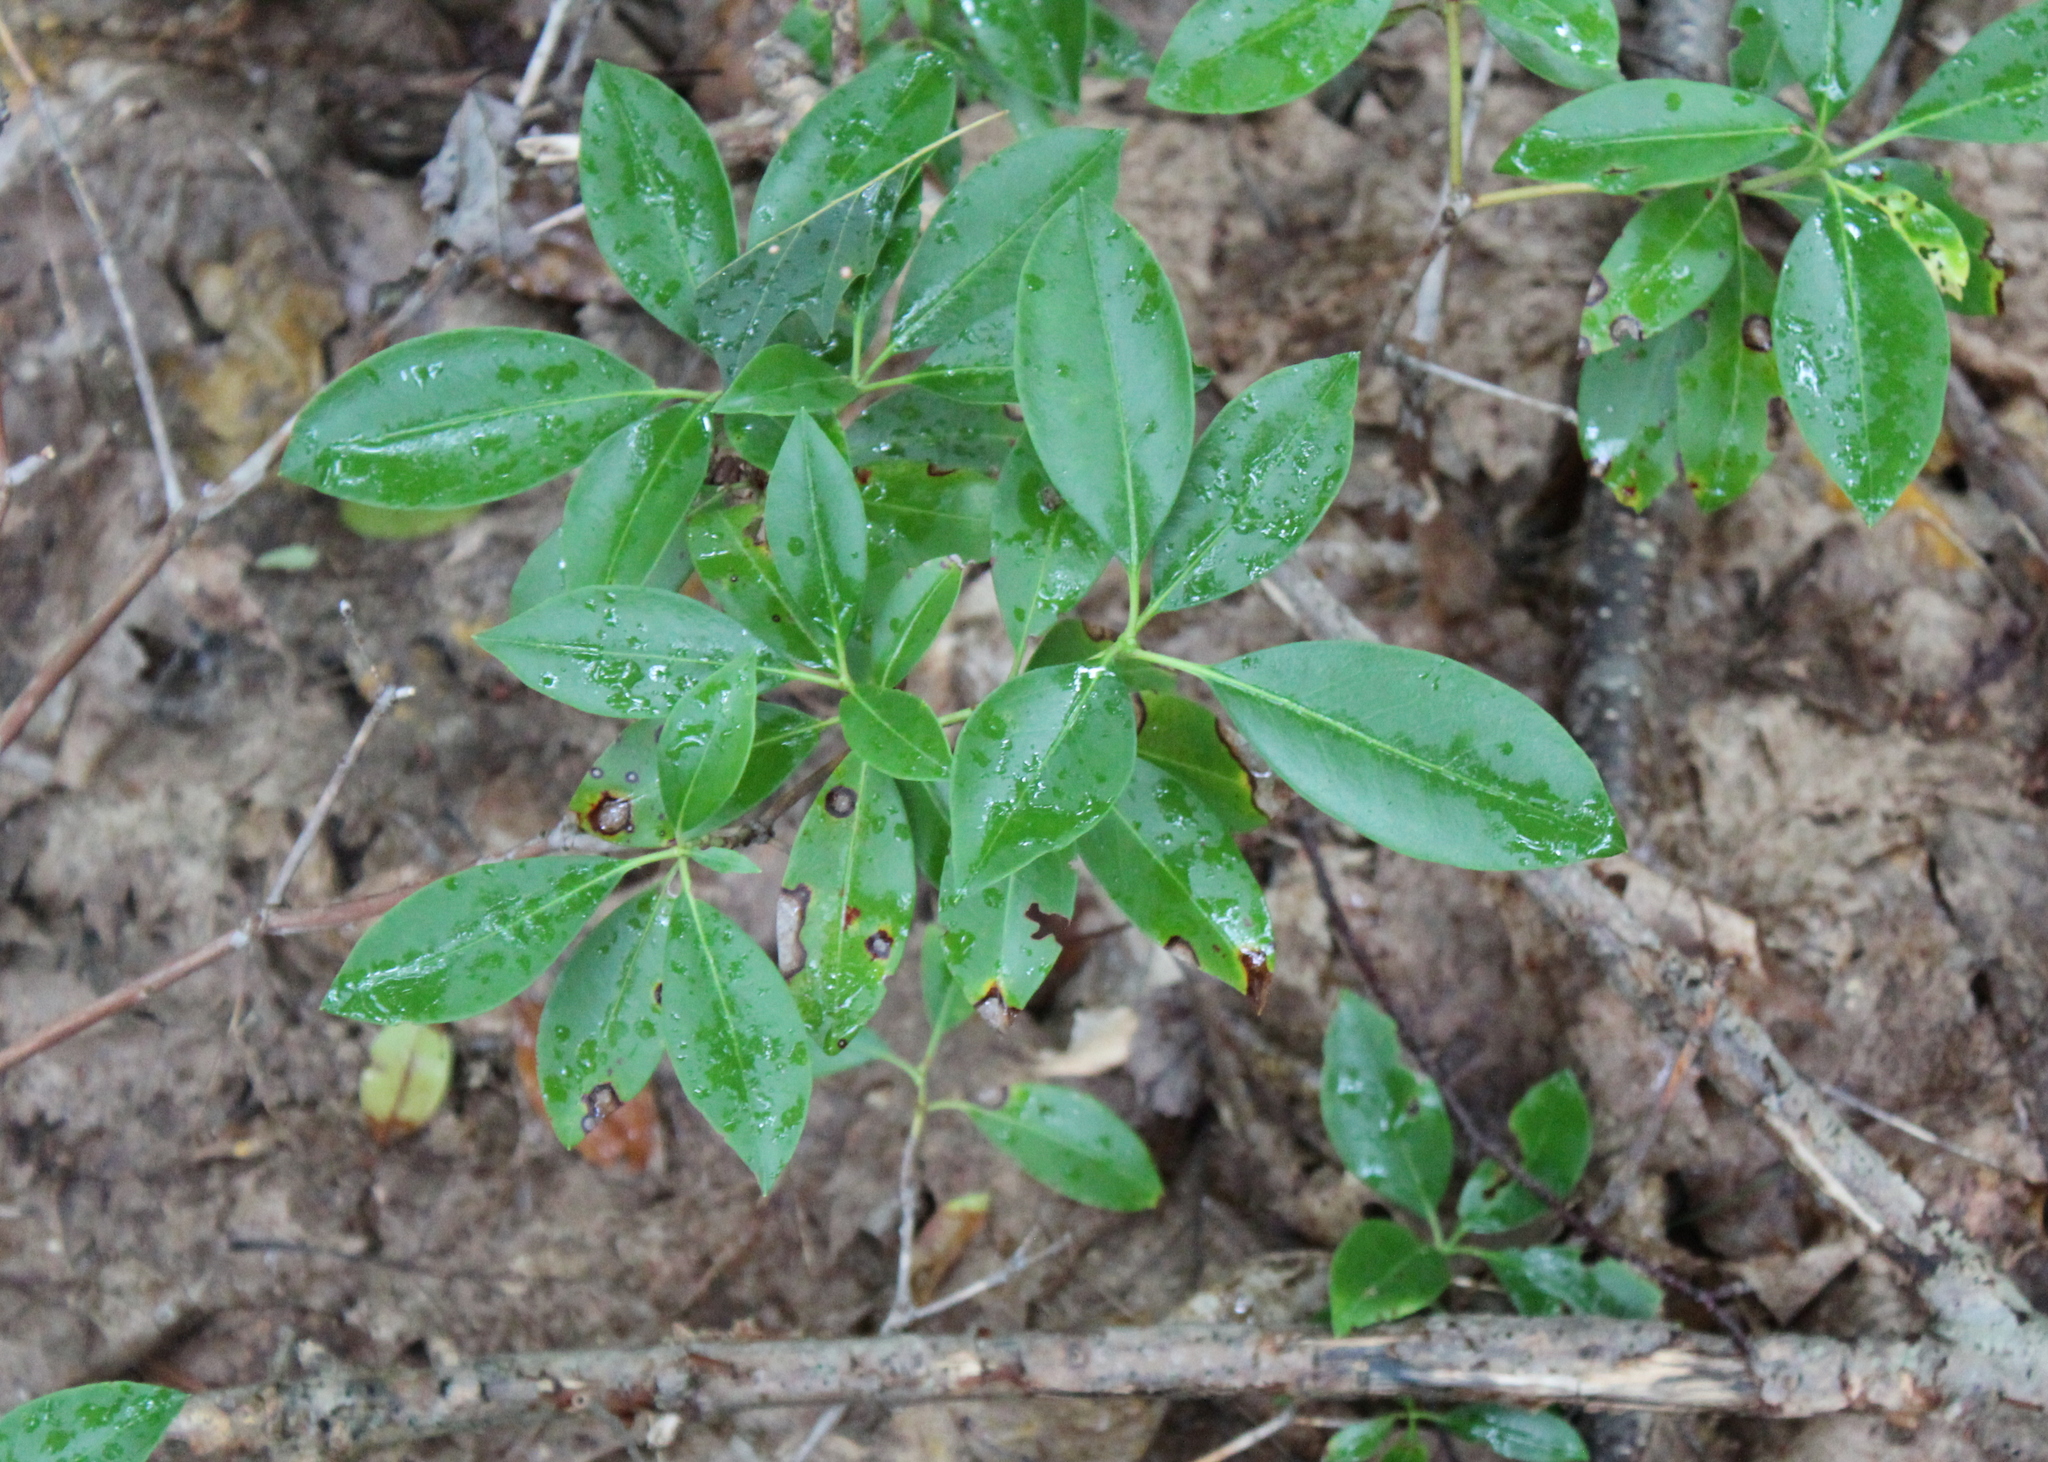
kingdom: Plantae
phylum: Tracheophyta
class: Magnoliopsida
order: Ericales
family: Ericaceae
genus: Kalmia
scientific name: Kalmia latifolia
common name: Mountain-laurel
